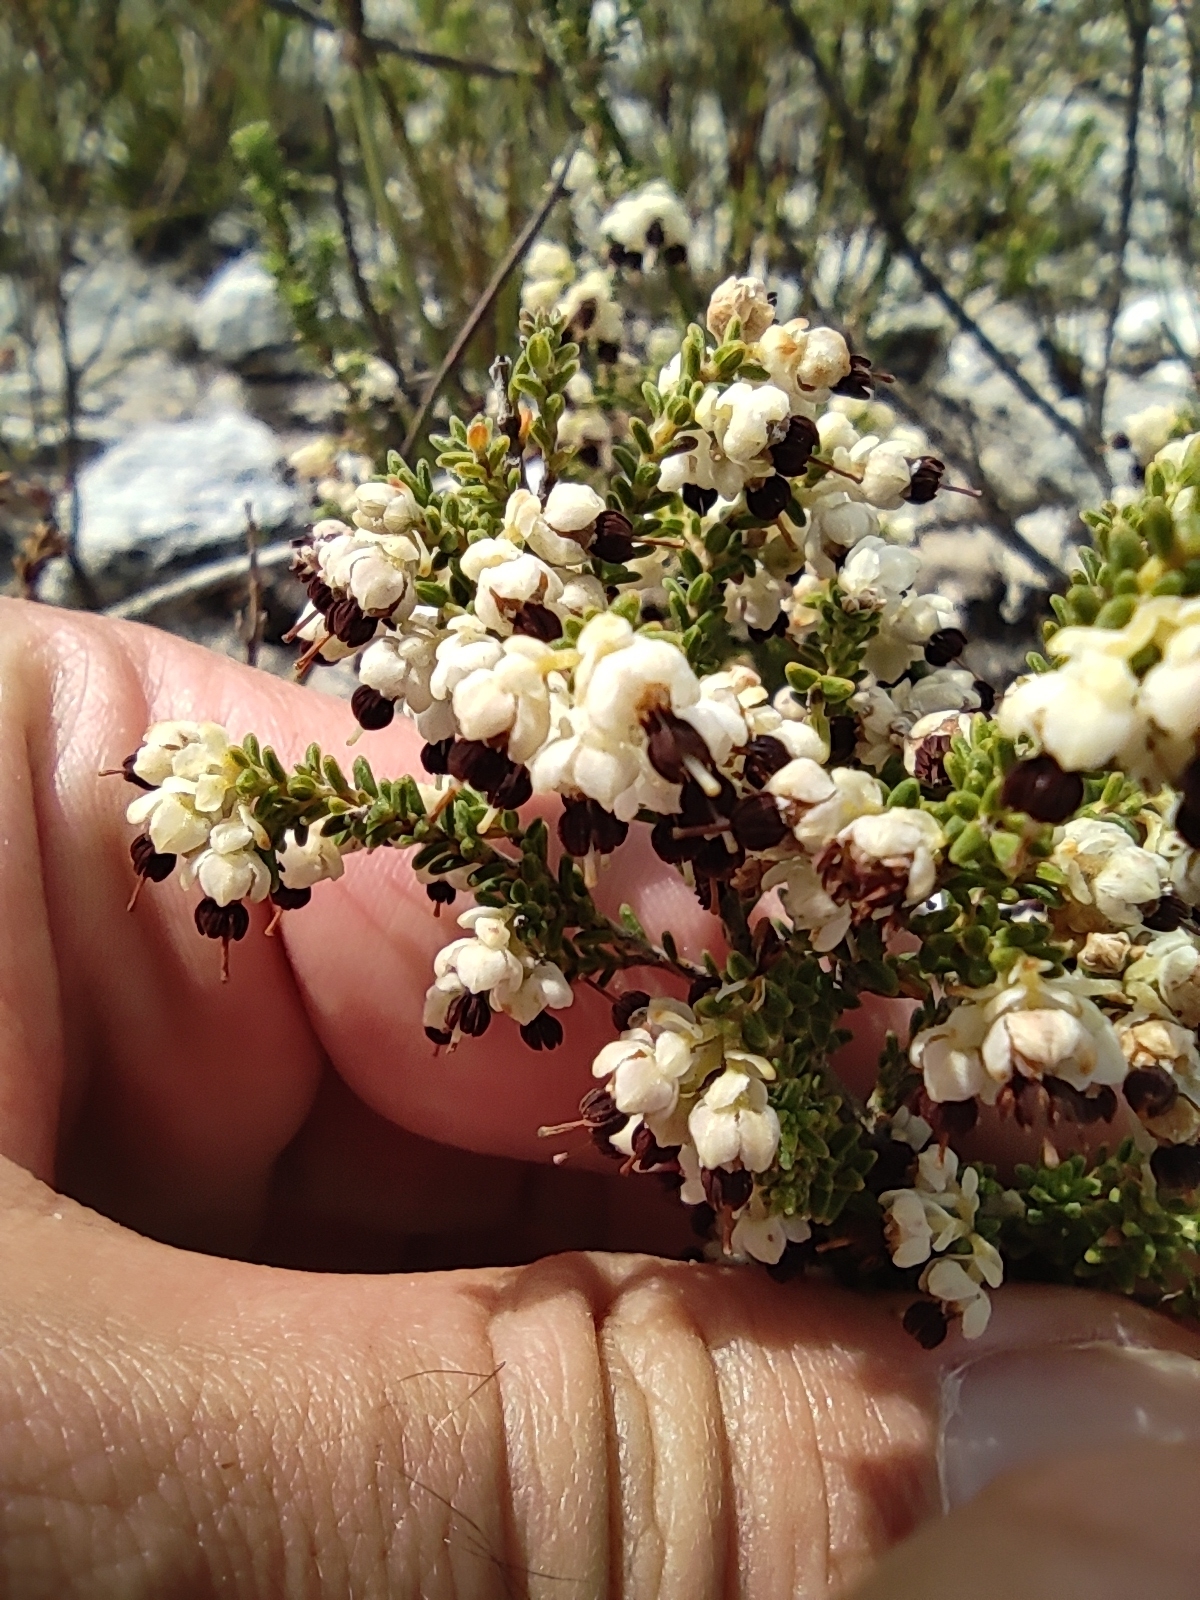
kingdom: Plantae
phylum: Tracheophyta
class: Magnoliopsida
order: Ericales
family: Ericaceae
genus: Erica
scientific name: Erica suffulta
